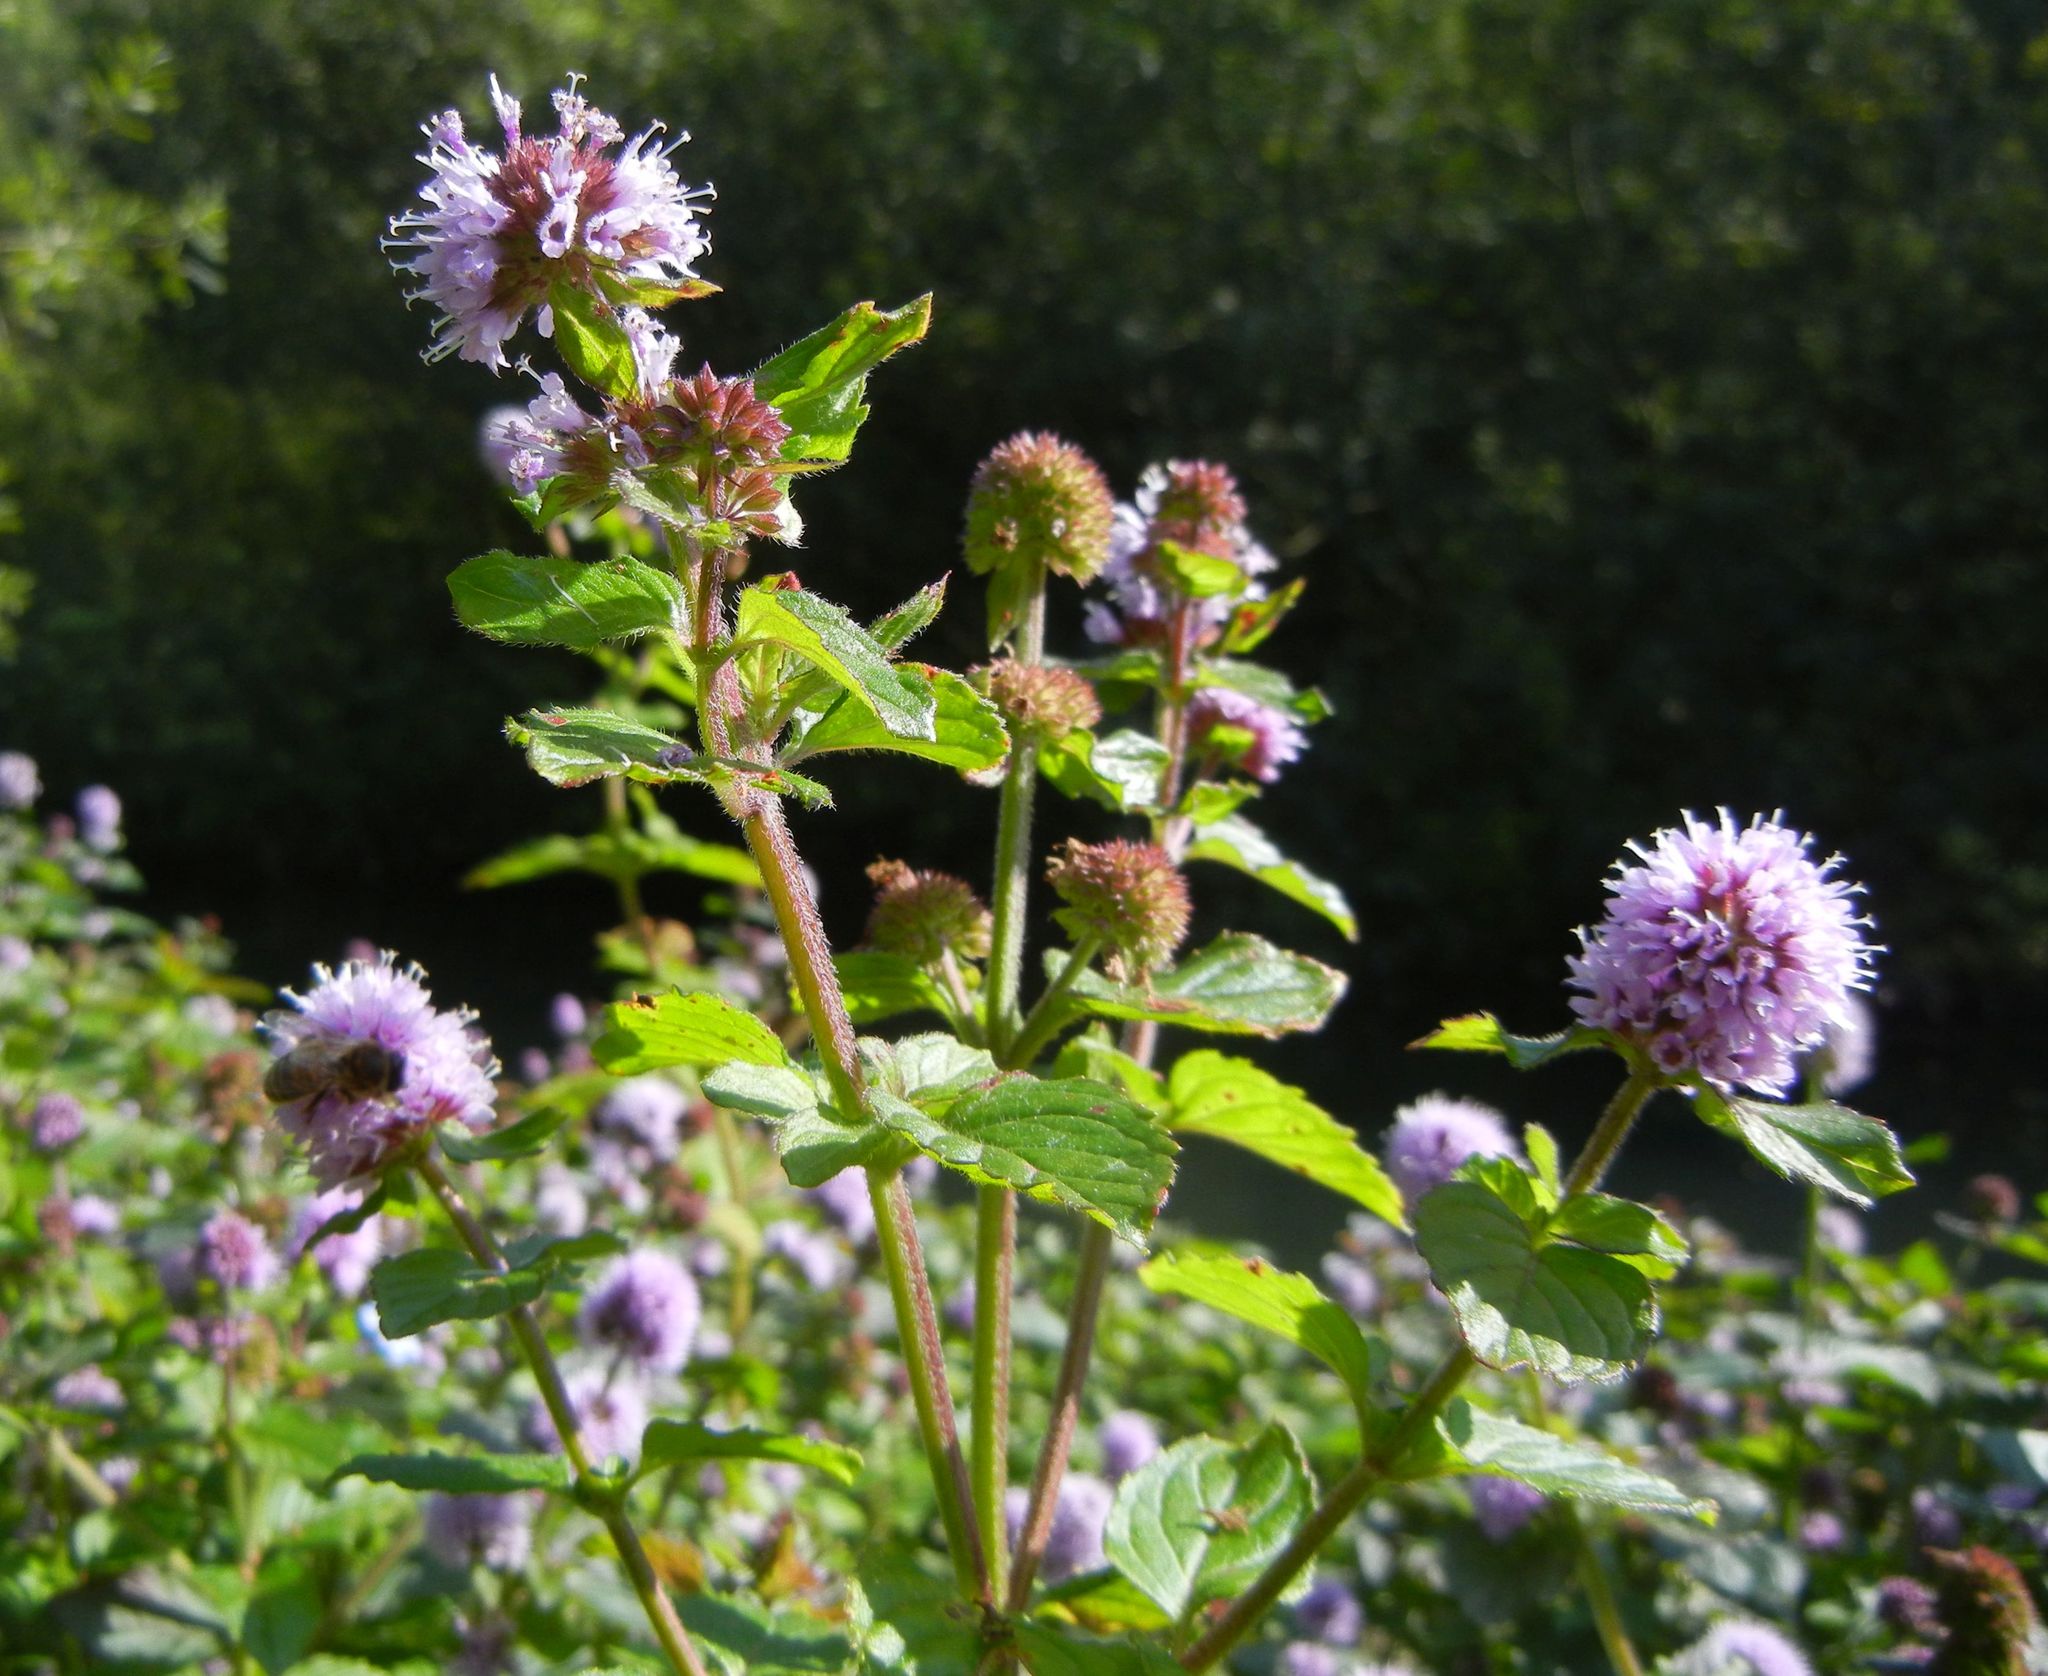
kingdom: Plantae
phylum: Tracheophyta
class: Magnoliopsida
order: Lamiales
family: Lamiaceae
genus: Mentha
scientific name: Mentha aquatica
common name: Water mint
